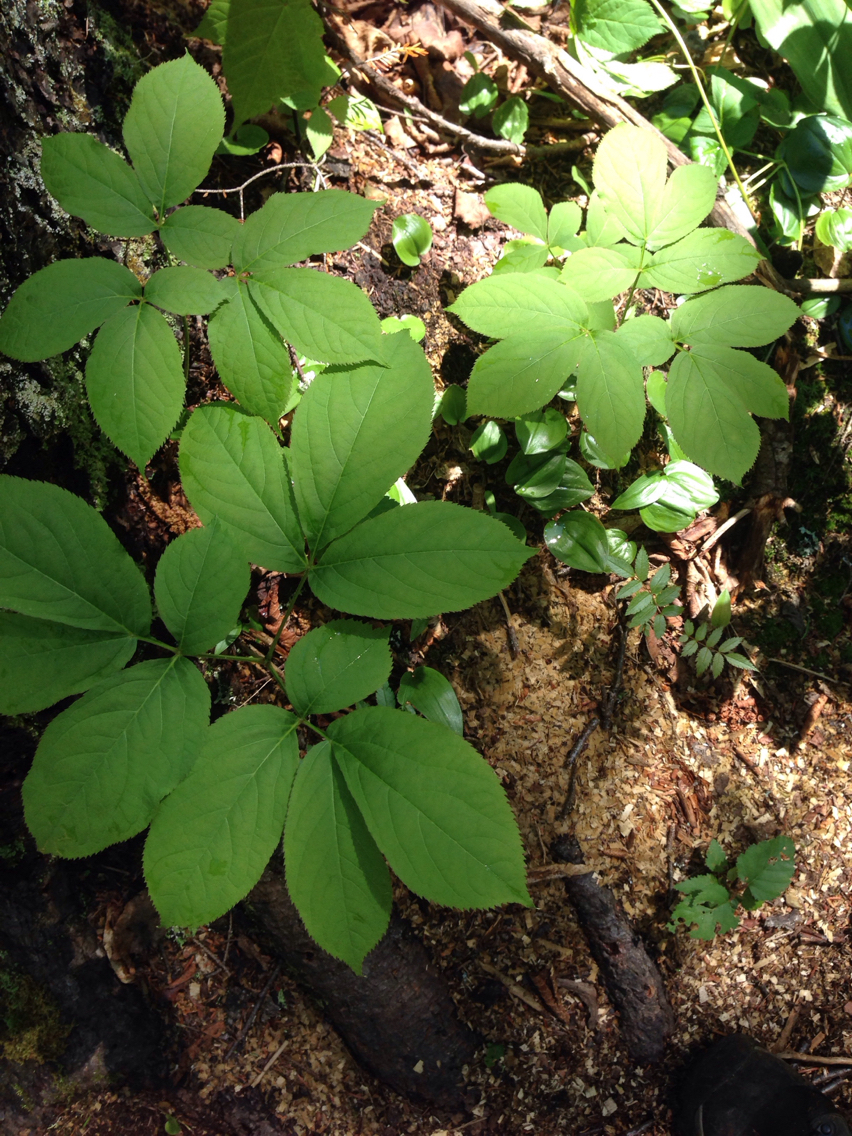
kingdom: Plantae
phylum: Tracheophyta
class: Magnoliopsida
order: Apiales
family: Araliaceae
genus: Aralia
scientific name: Aralia nudicaulis
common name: Wild sarsaparilla
